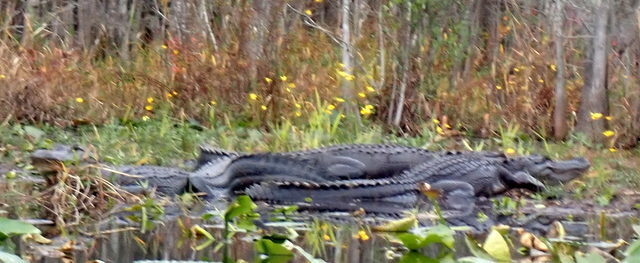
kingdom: Animalia
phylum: Chordata
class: Crocodylia
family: Alligatoridae
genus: Alligator
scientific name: Alligator mississippiensis
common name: American alligator
